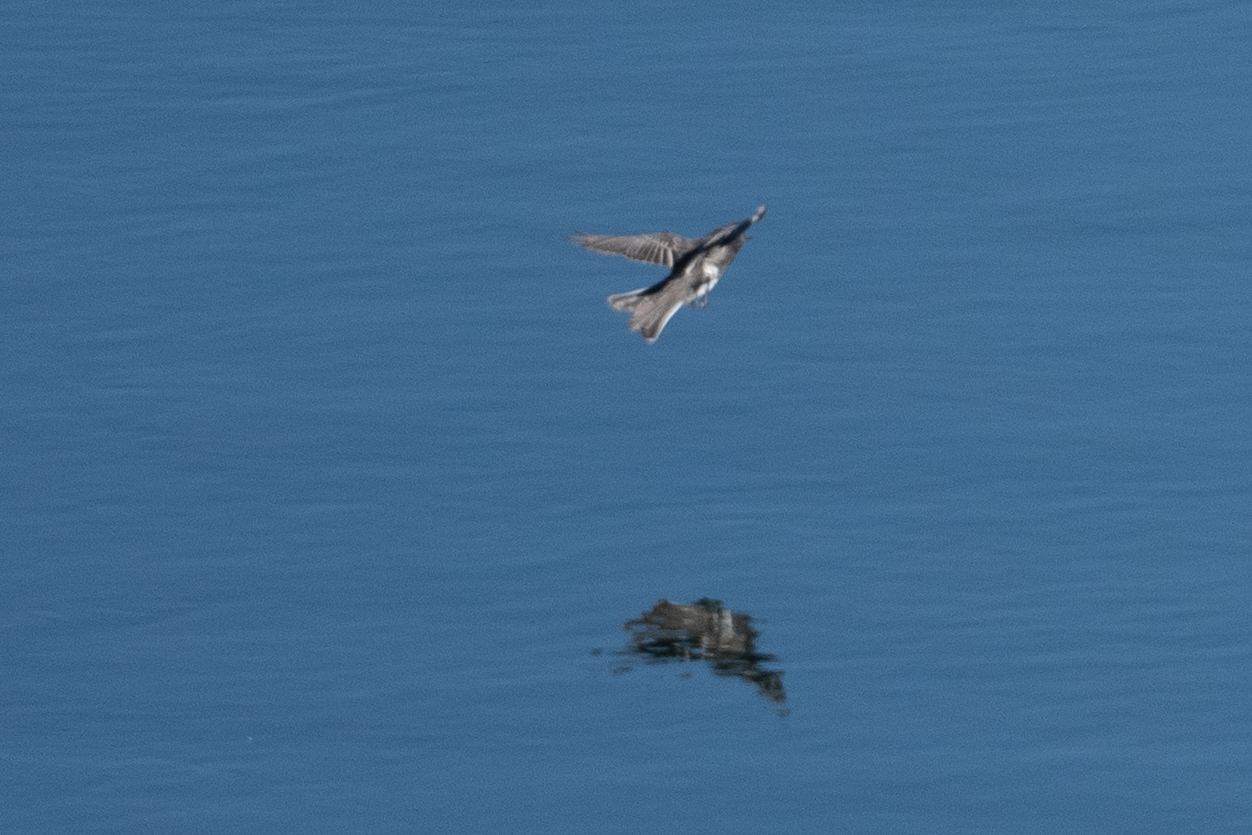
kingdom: Animalia
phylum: Chordata
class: Aves
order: Passeriformes
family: Tyrannidae
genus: Sayornis
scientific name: Sayornis nigricans
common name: Black phoebe
